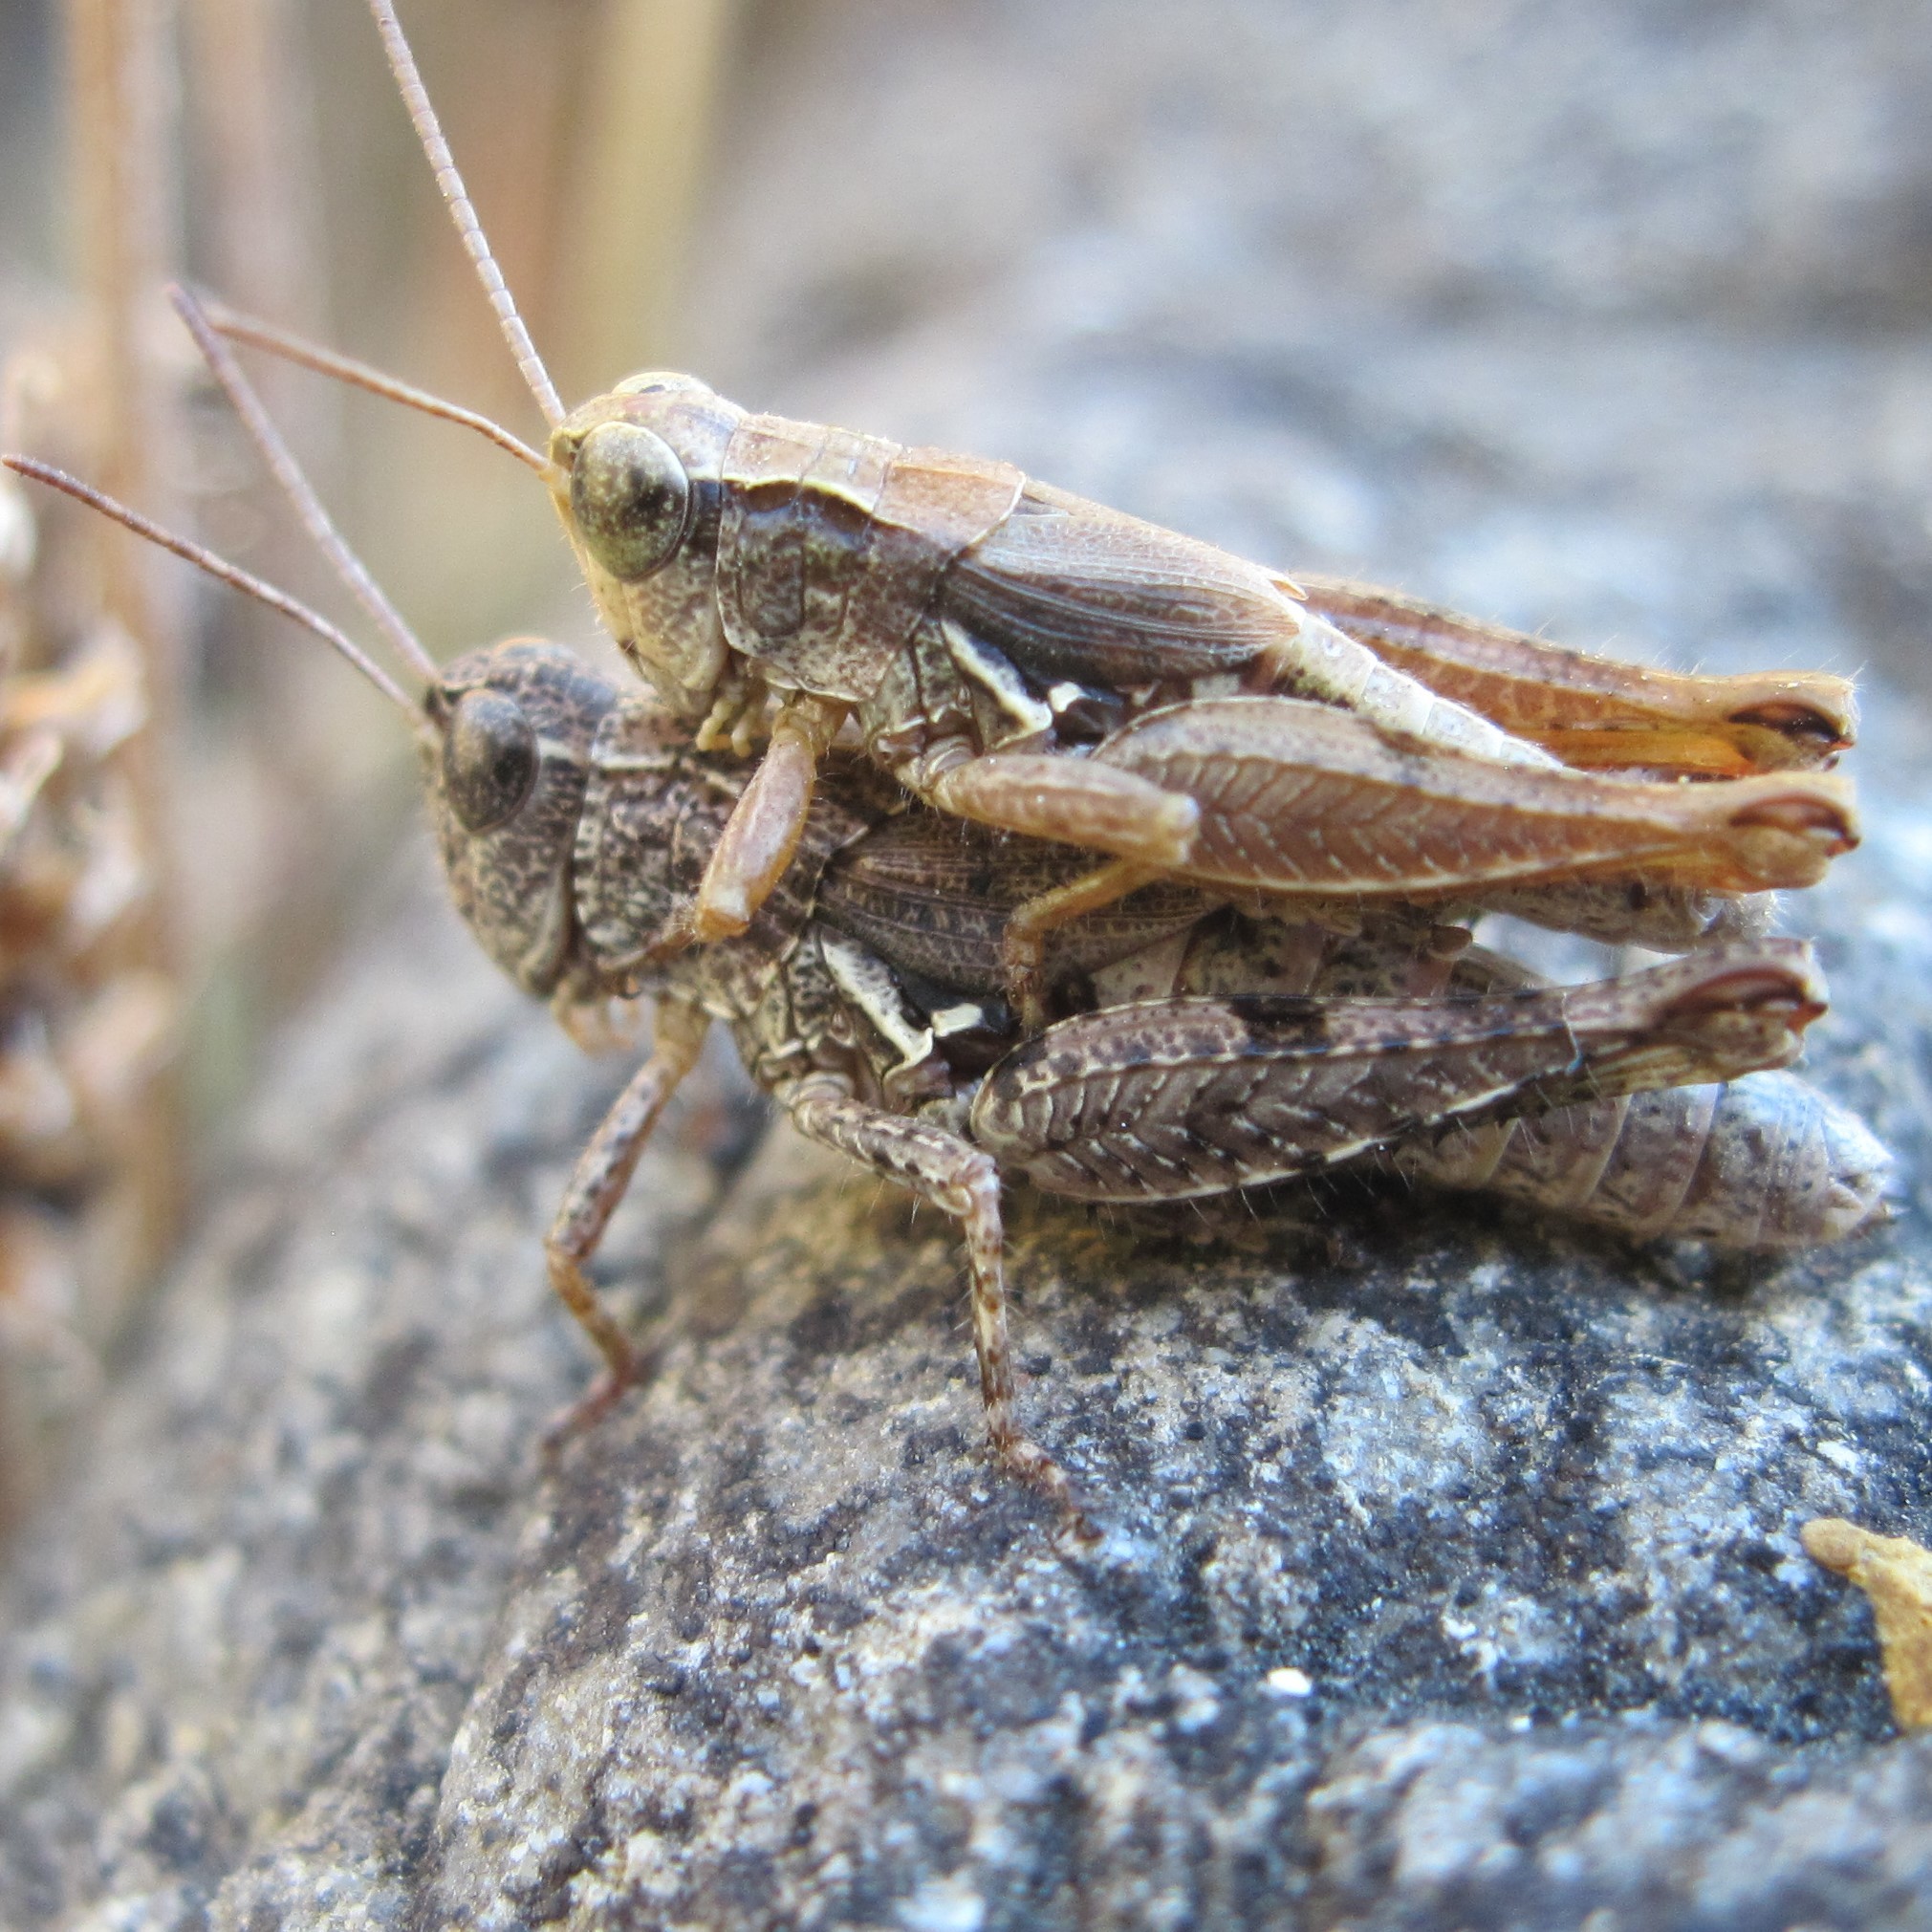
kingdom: Animalia
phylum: Arthropoda
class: Insecta
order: Orthoptera
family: Acrididae
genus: Phaulacridium
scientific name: Phaulacridium marginale
